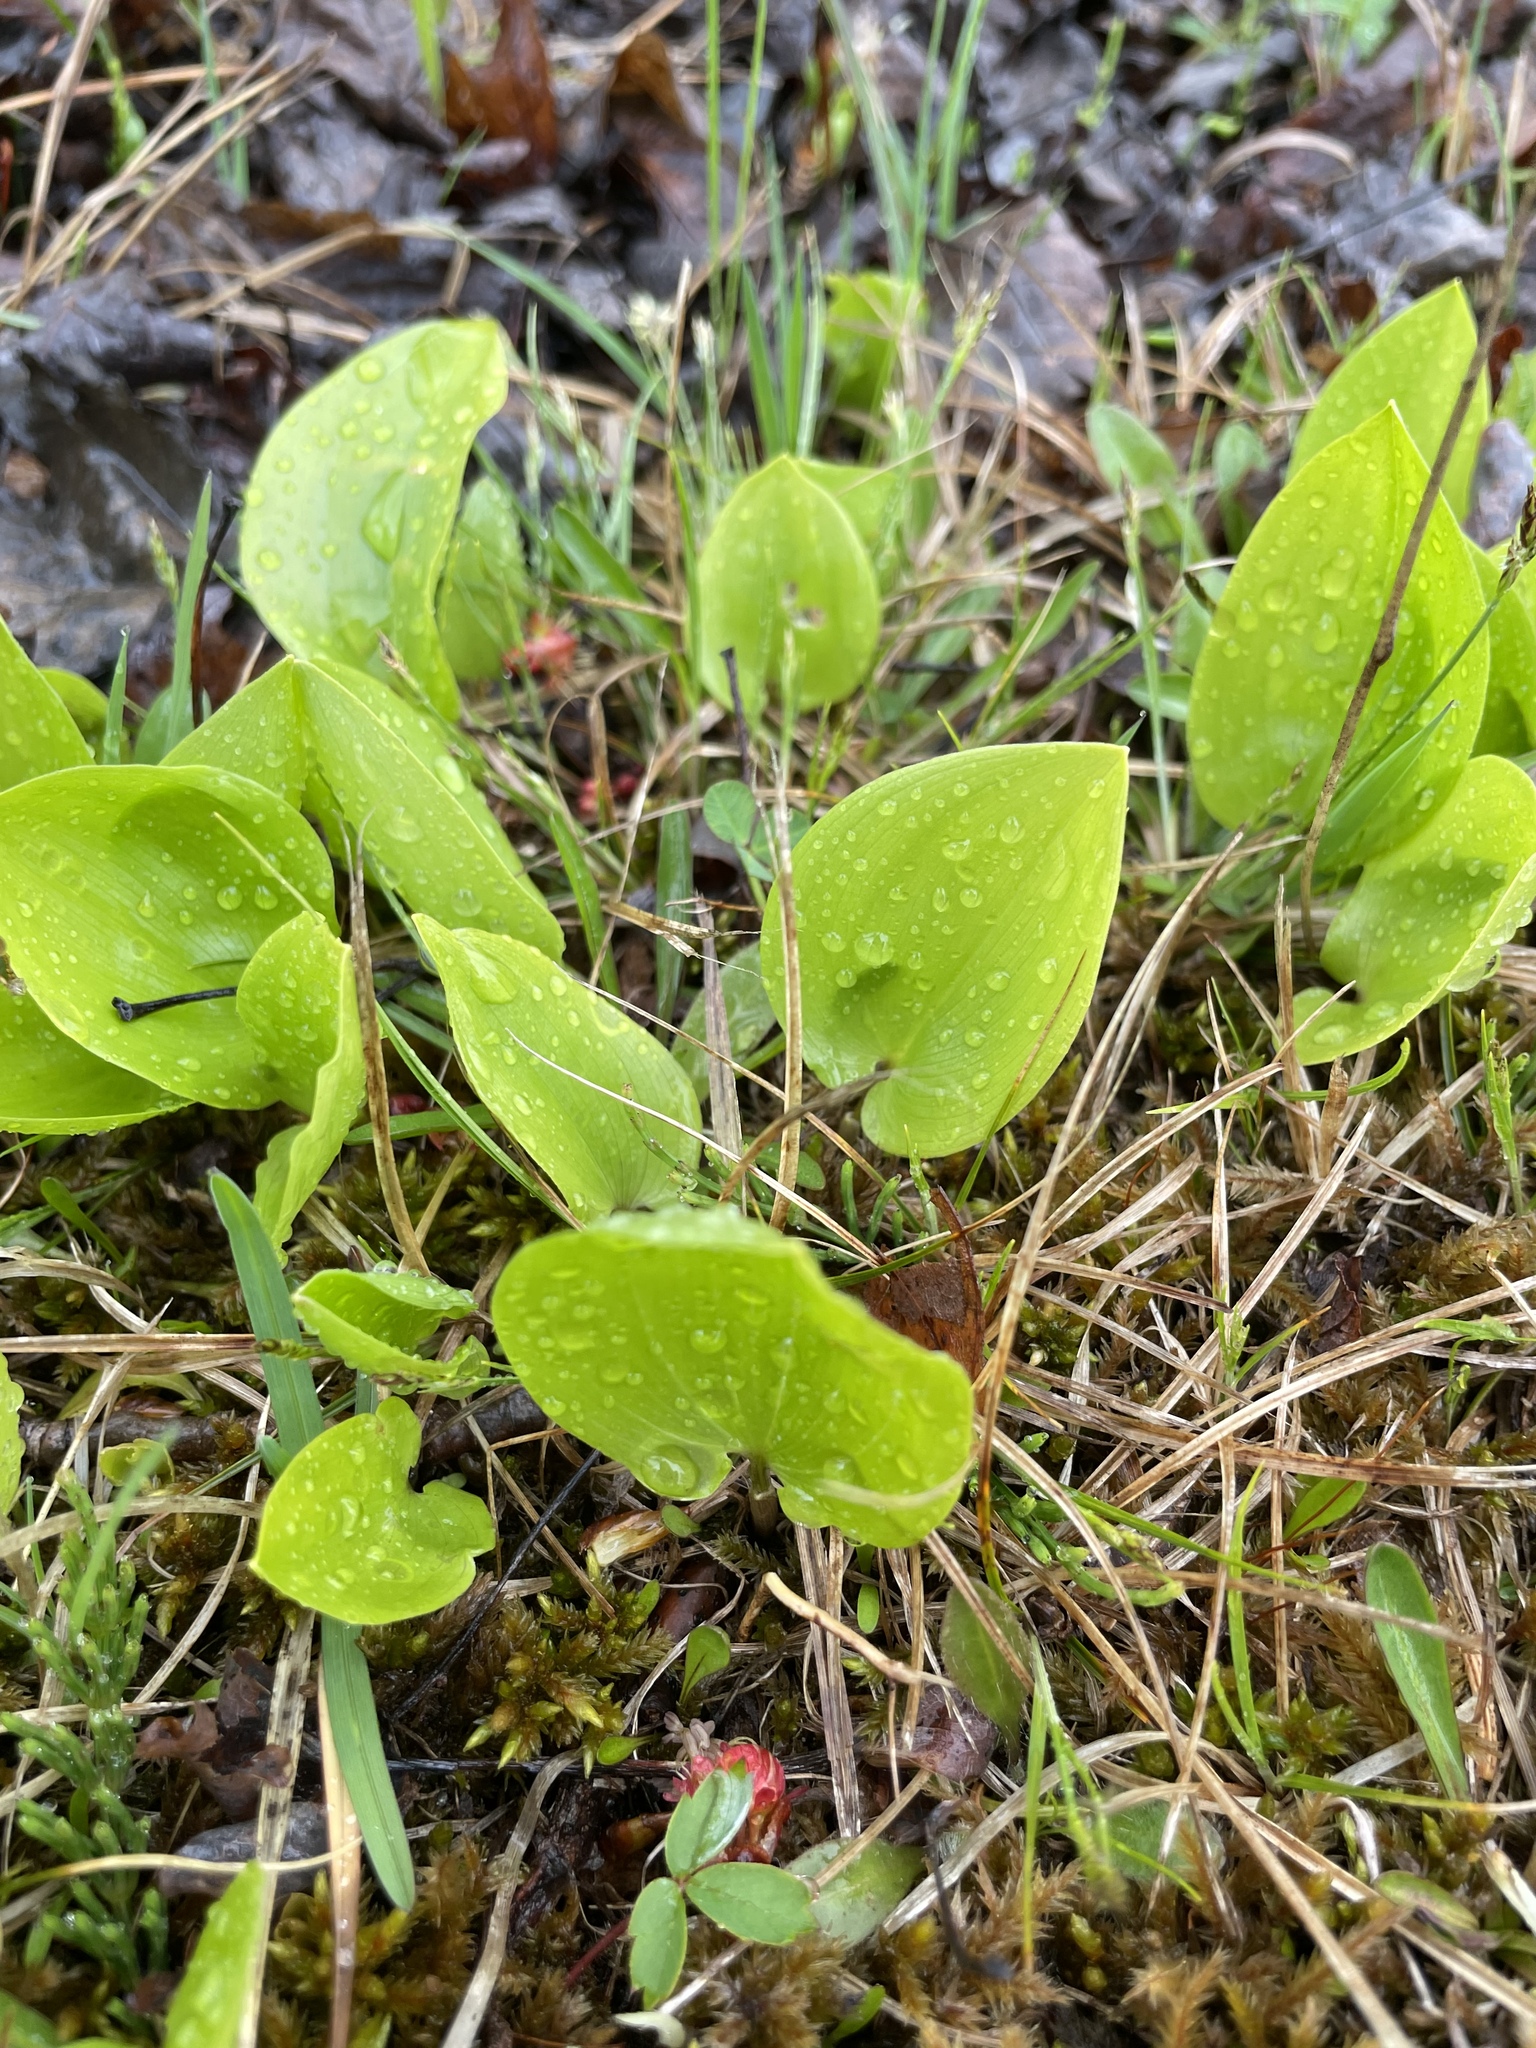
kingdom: Plantae
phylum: Tracheophyta
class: Liliopsida
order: Asparagales
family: Asparagaceae
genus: Maianthemum
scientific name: Maianthemum canadense
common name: False lily-of-the-valley
